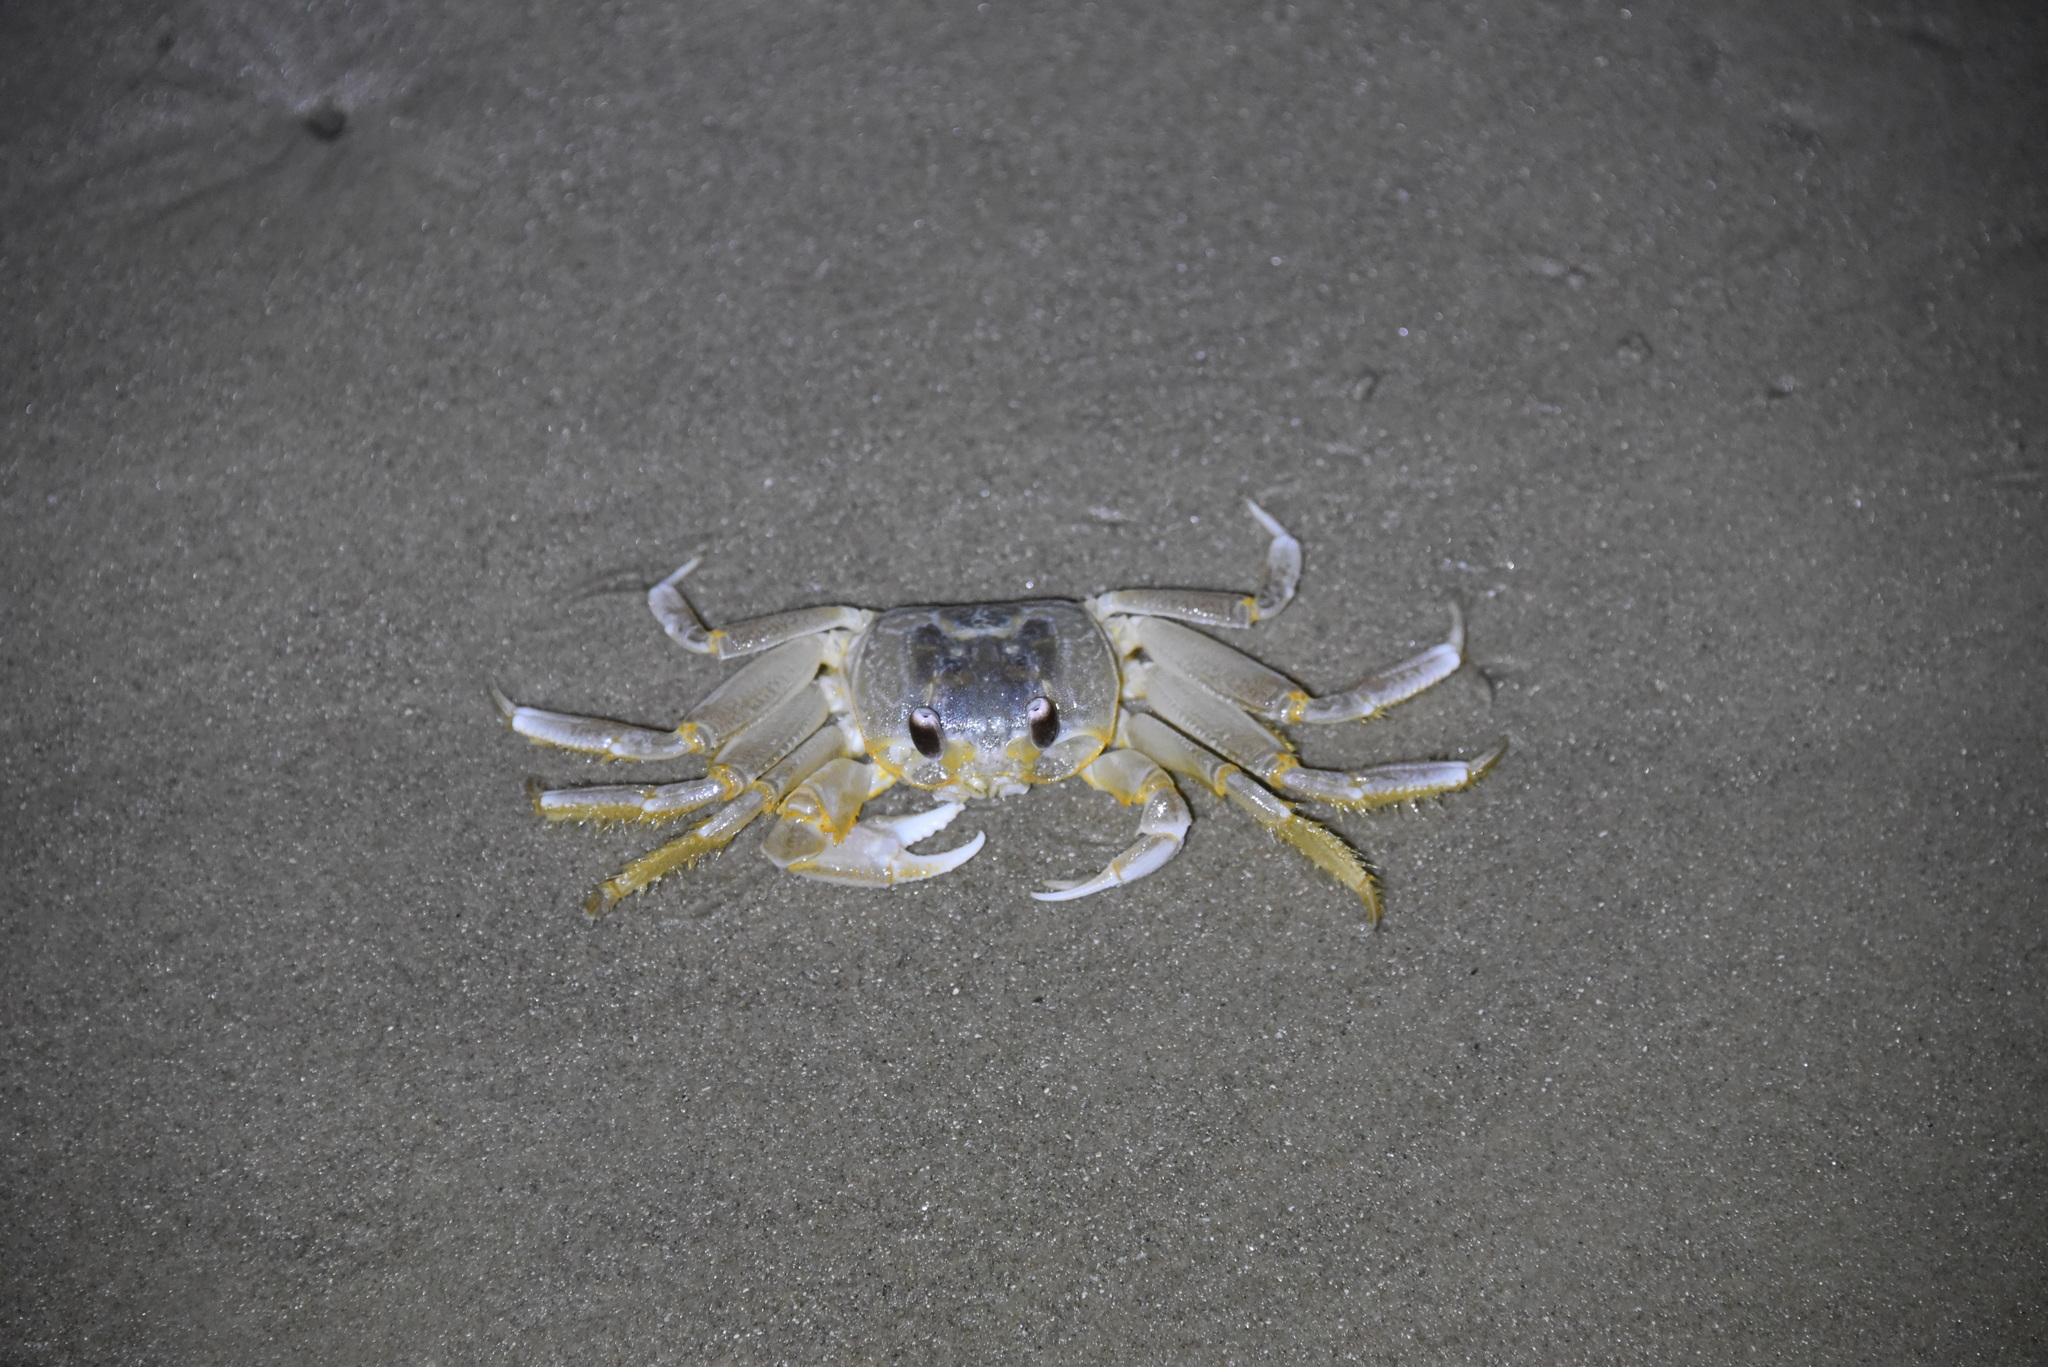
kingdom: Animalia
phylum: Arthropoda
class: Malacostraca
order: Decapoda
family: Ocypodidae
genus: Ocypode
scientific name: Ocypode quadrata
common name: Ghost crab
